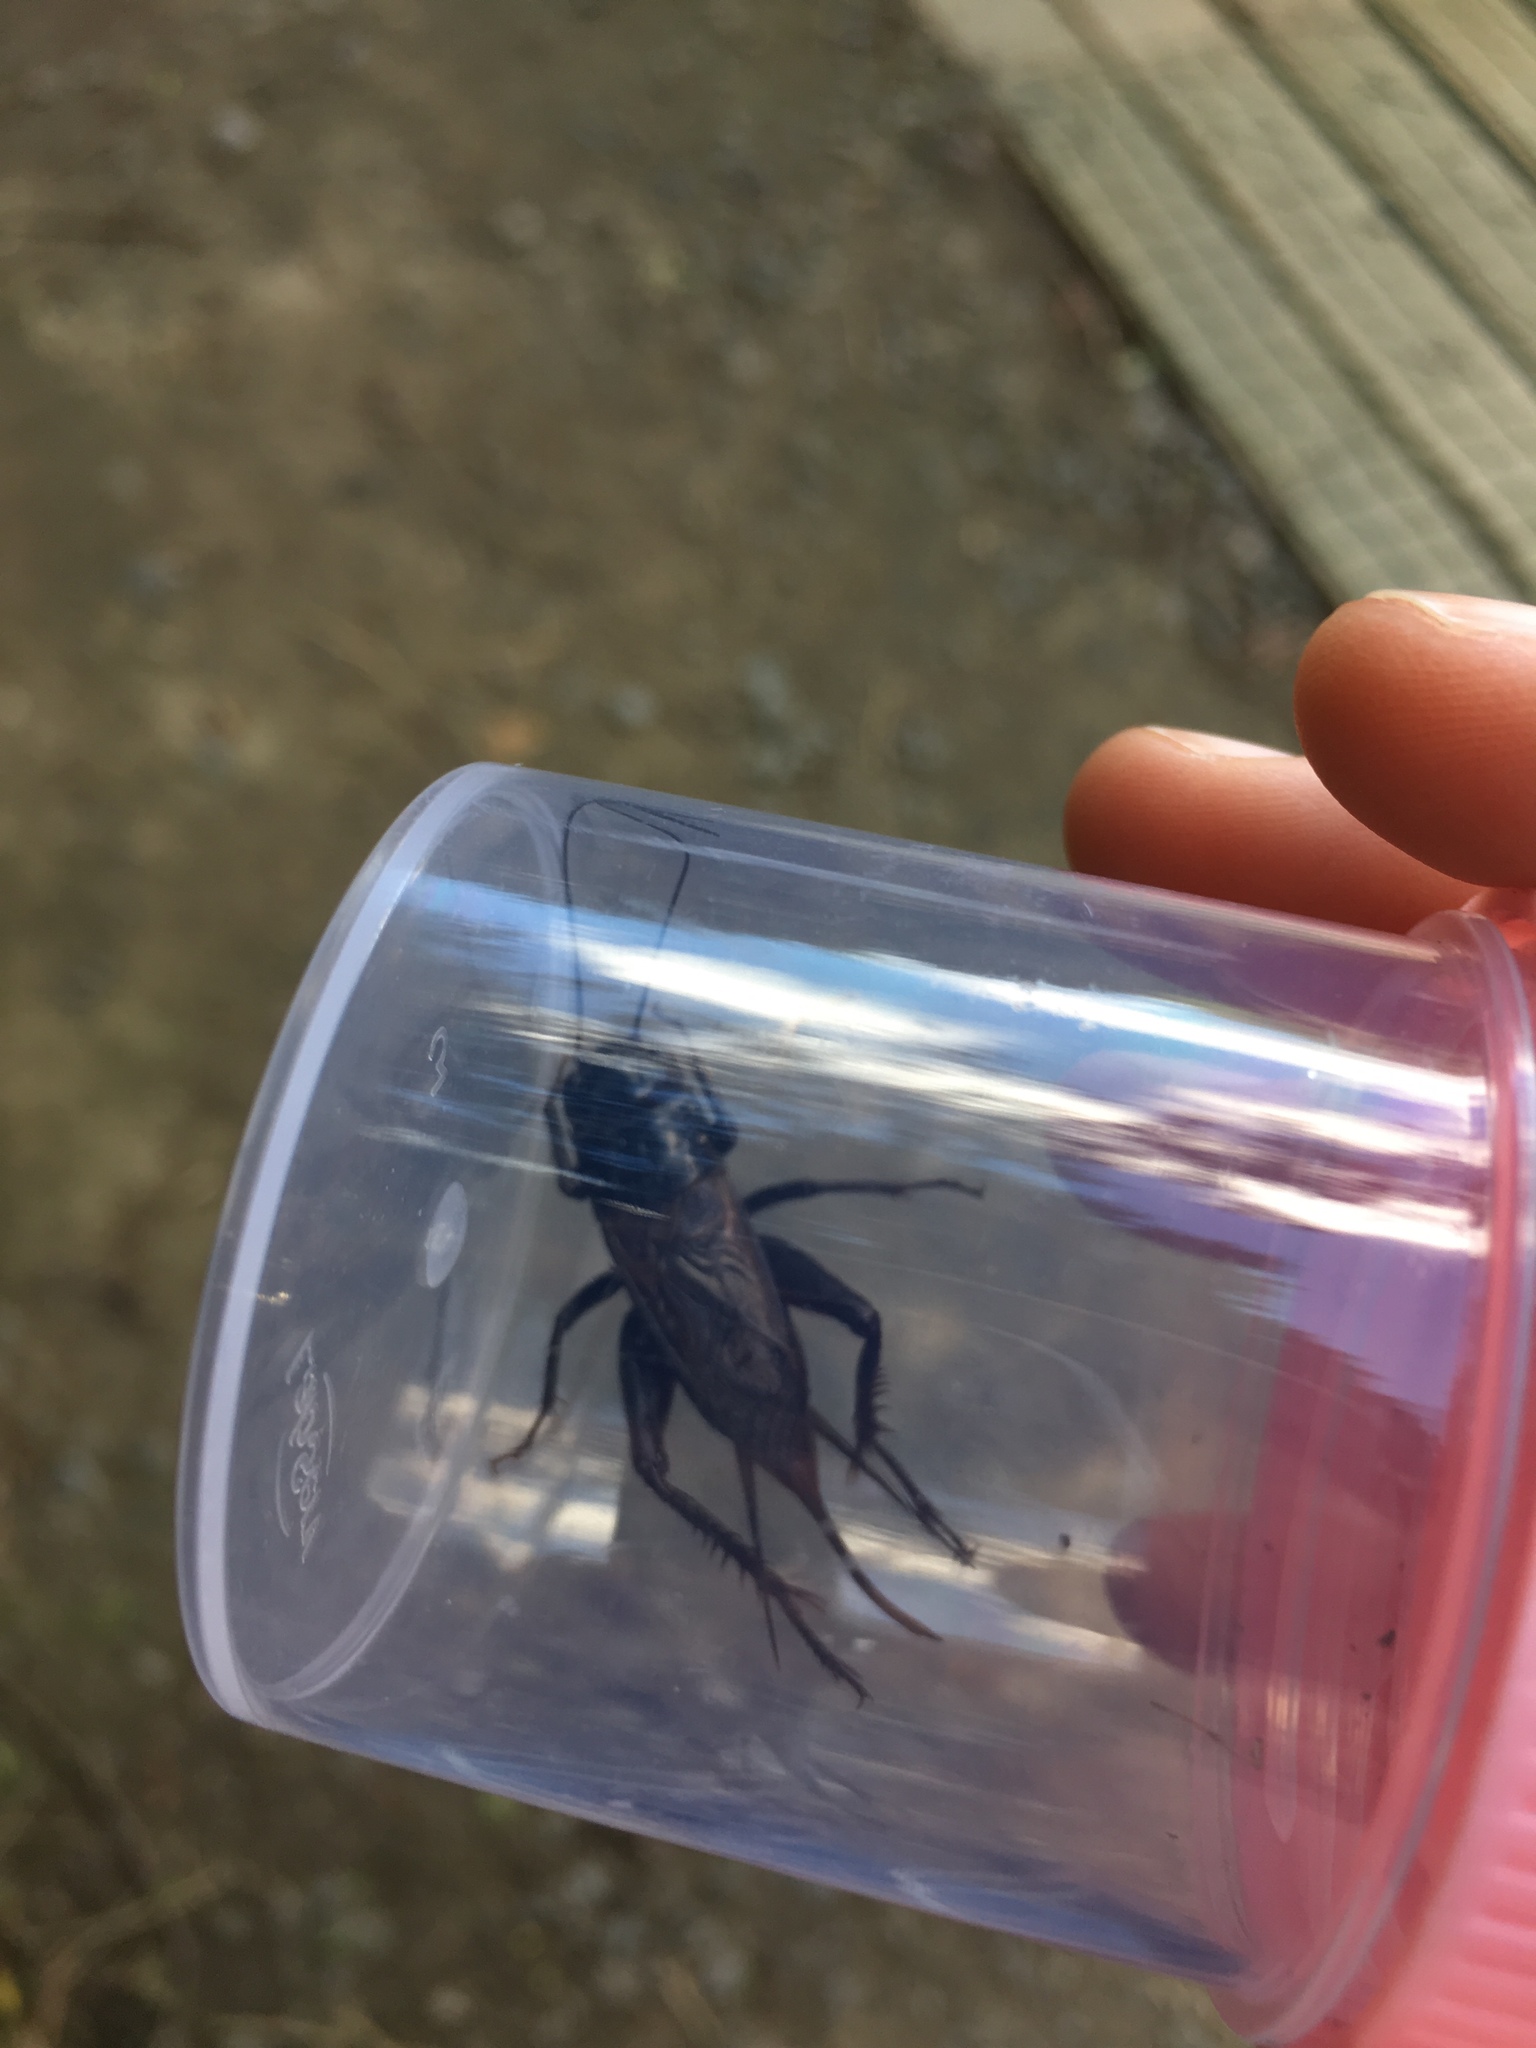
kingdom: Animalia
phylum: Arthropoda
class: Insecta
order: Orthoptera
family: Gryllidae
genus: Teleogryllus
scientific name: Teleogryllus commodus
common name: Black field cricket
